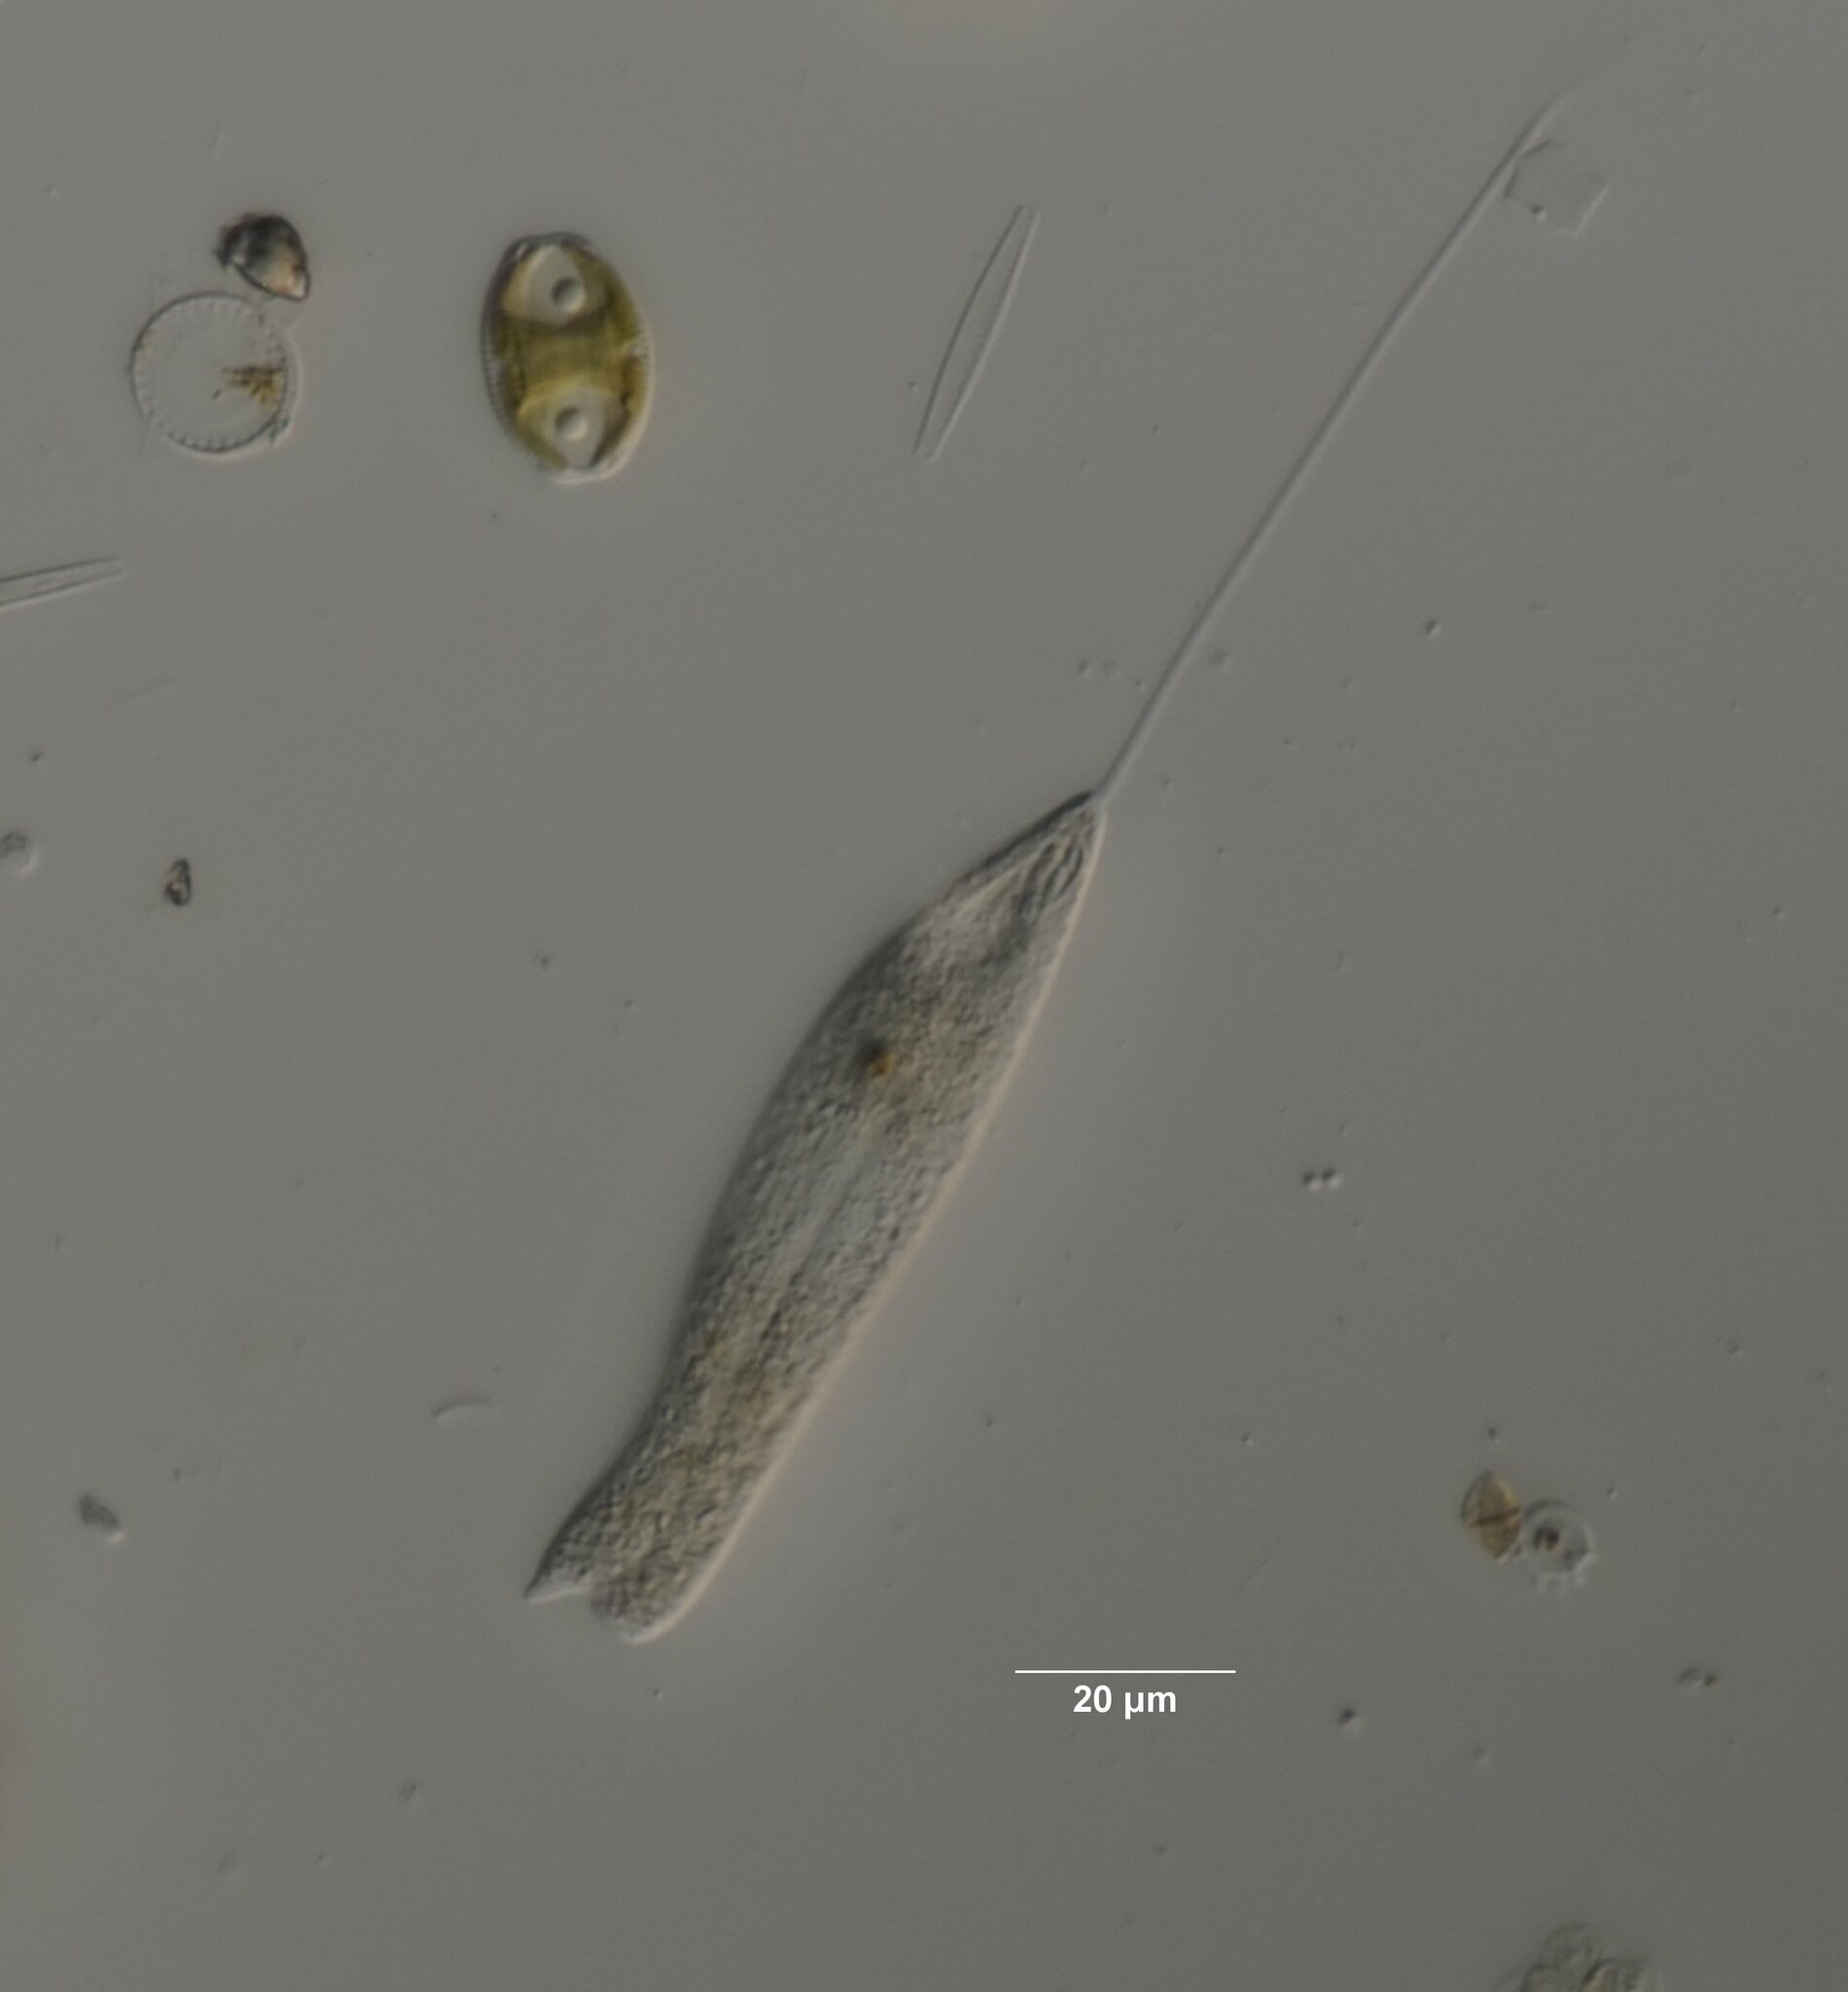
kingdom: Protozoa
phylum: Euglenozoa
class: Euglenoidea
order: Peranemida
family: Peranemidae
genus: Peranema
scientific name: Peranema Pseudoperanema trichophorum
